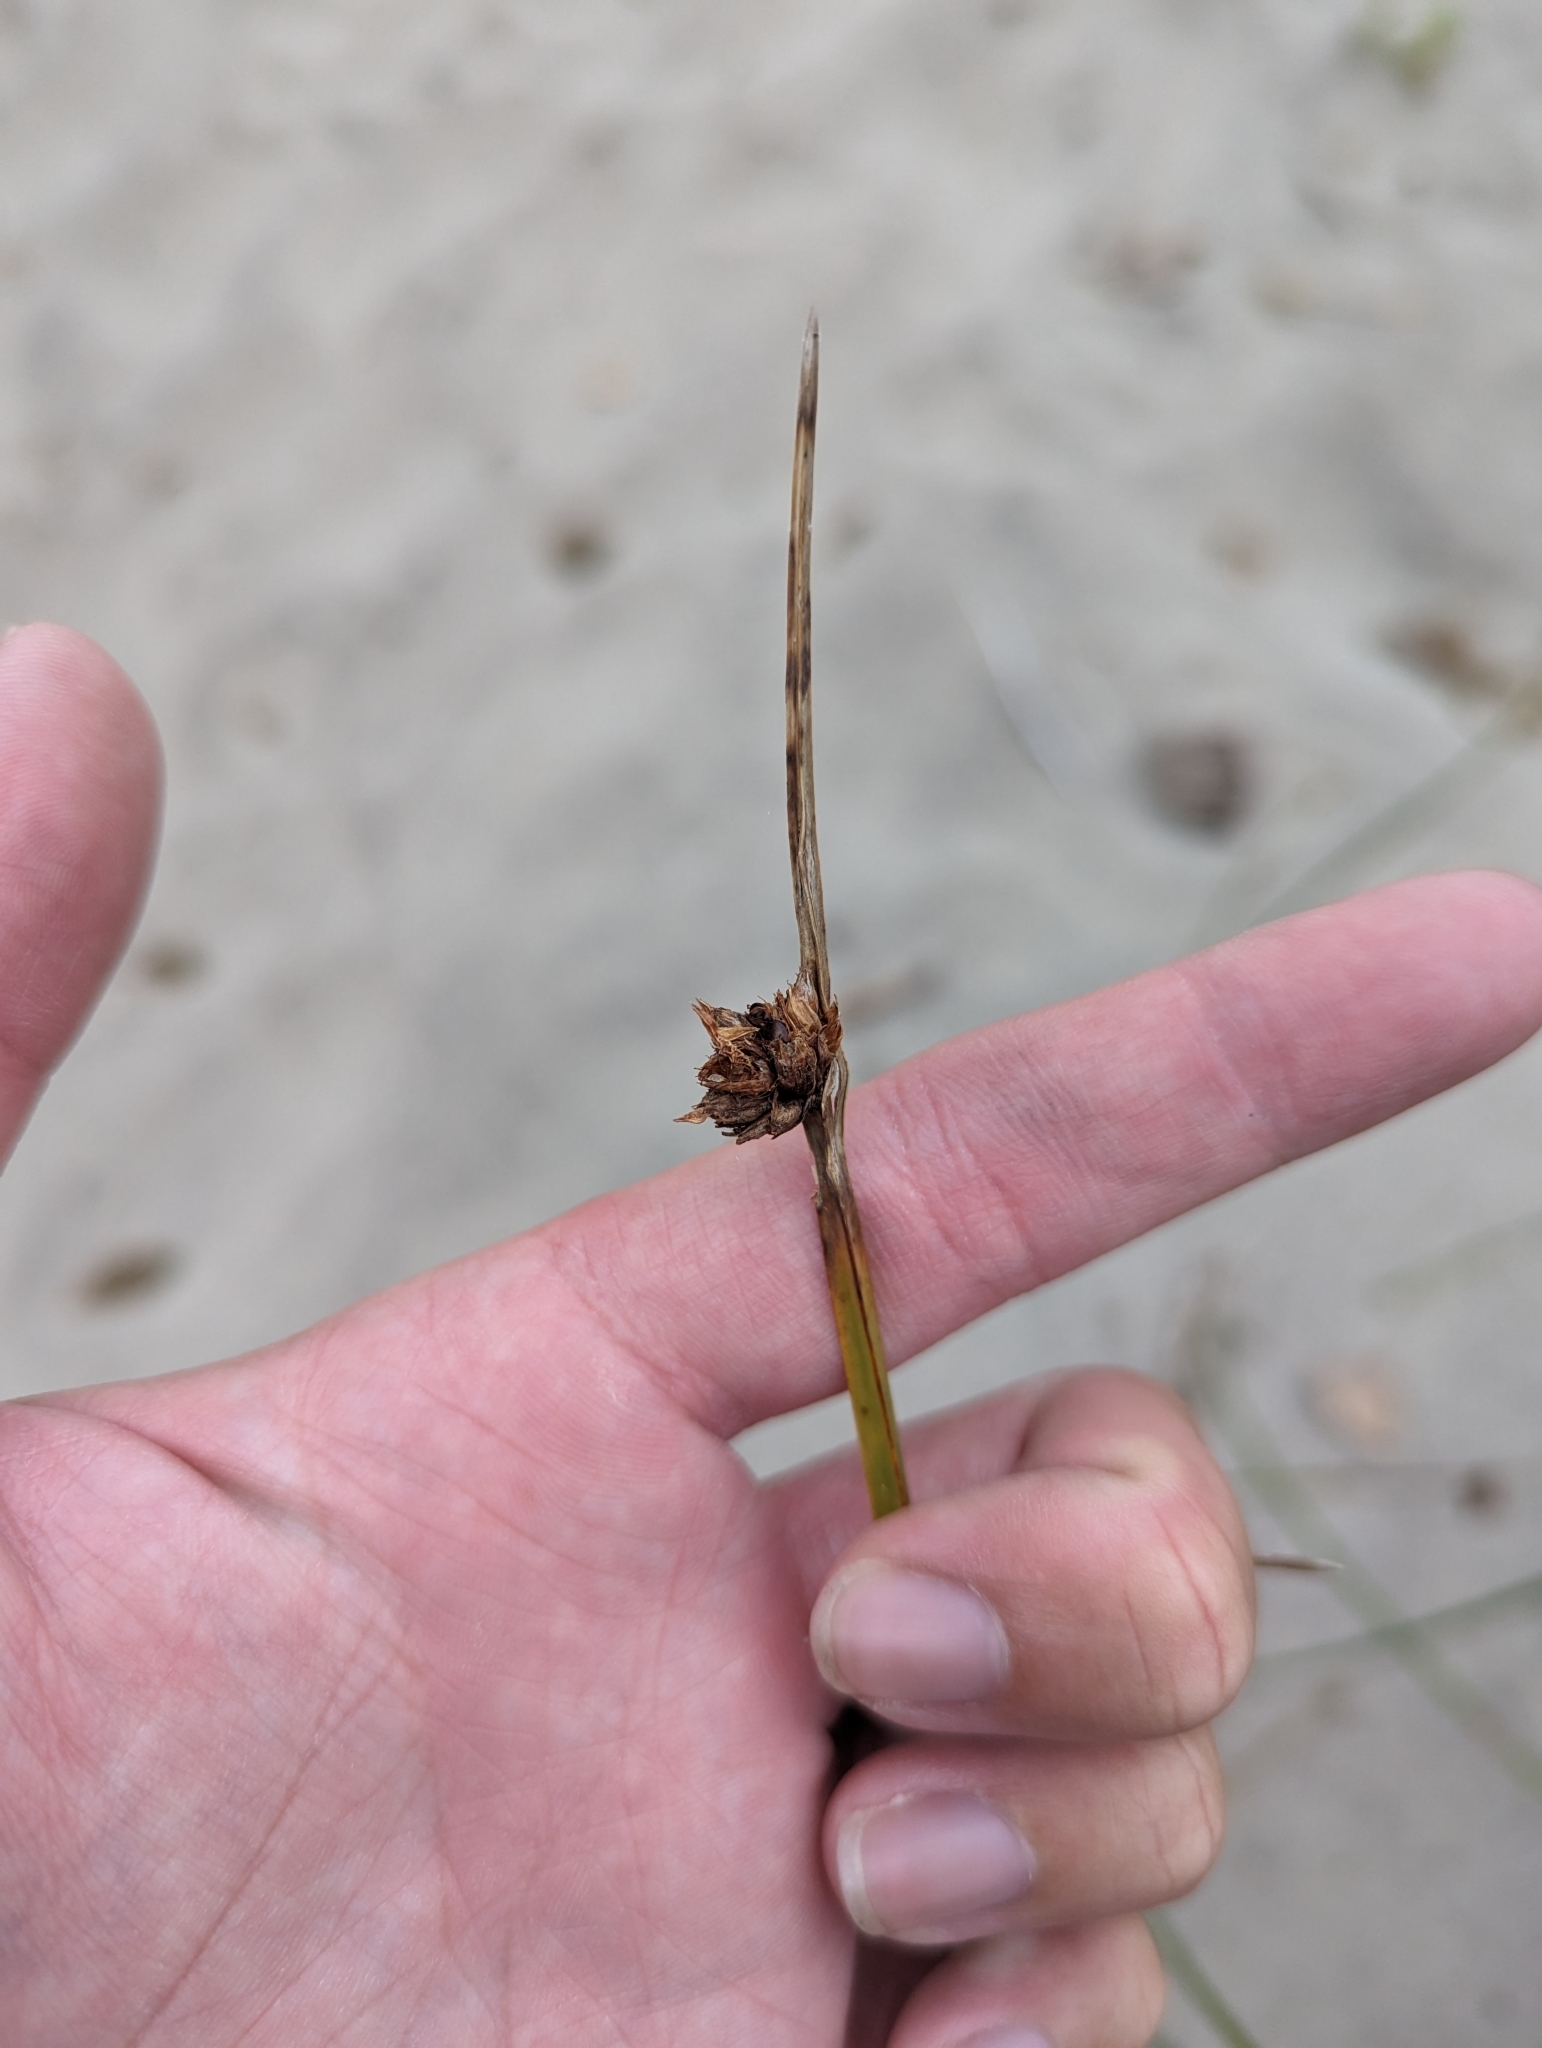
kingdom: Plantae
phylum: Tracheophyta
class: Liliopsida
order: Poales
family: Cyperaceae
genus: Schoenoplectus
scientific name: Schoenoplectus pungens
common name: Sharp club-rush
